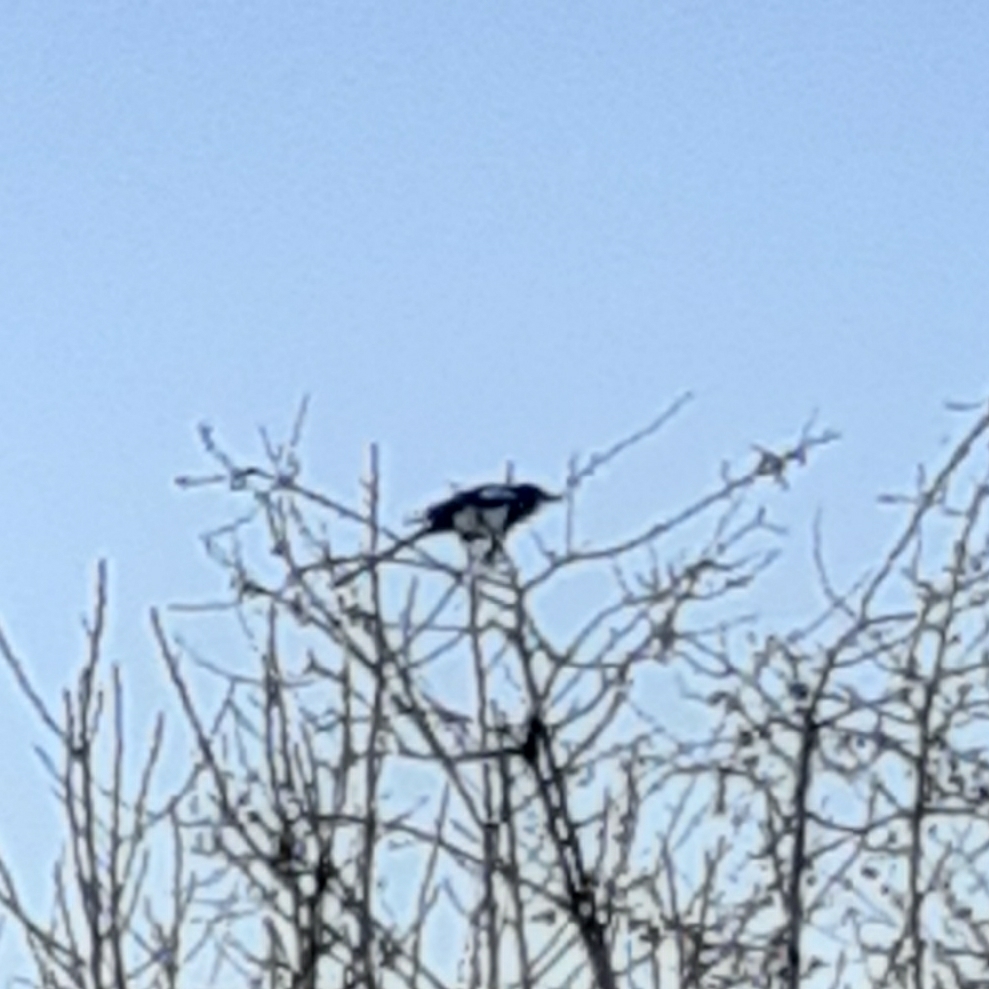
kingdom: Animalia
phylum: Chordata
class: Aves
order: Passeriformes
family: Corvidae
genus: Pica
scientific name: Pica pica
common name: Eurasian magpie
